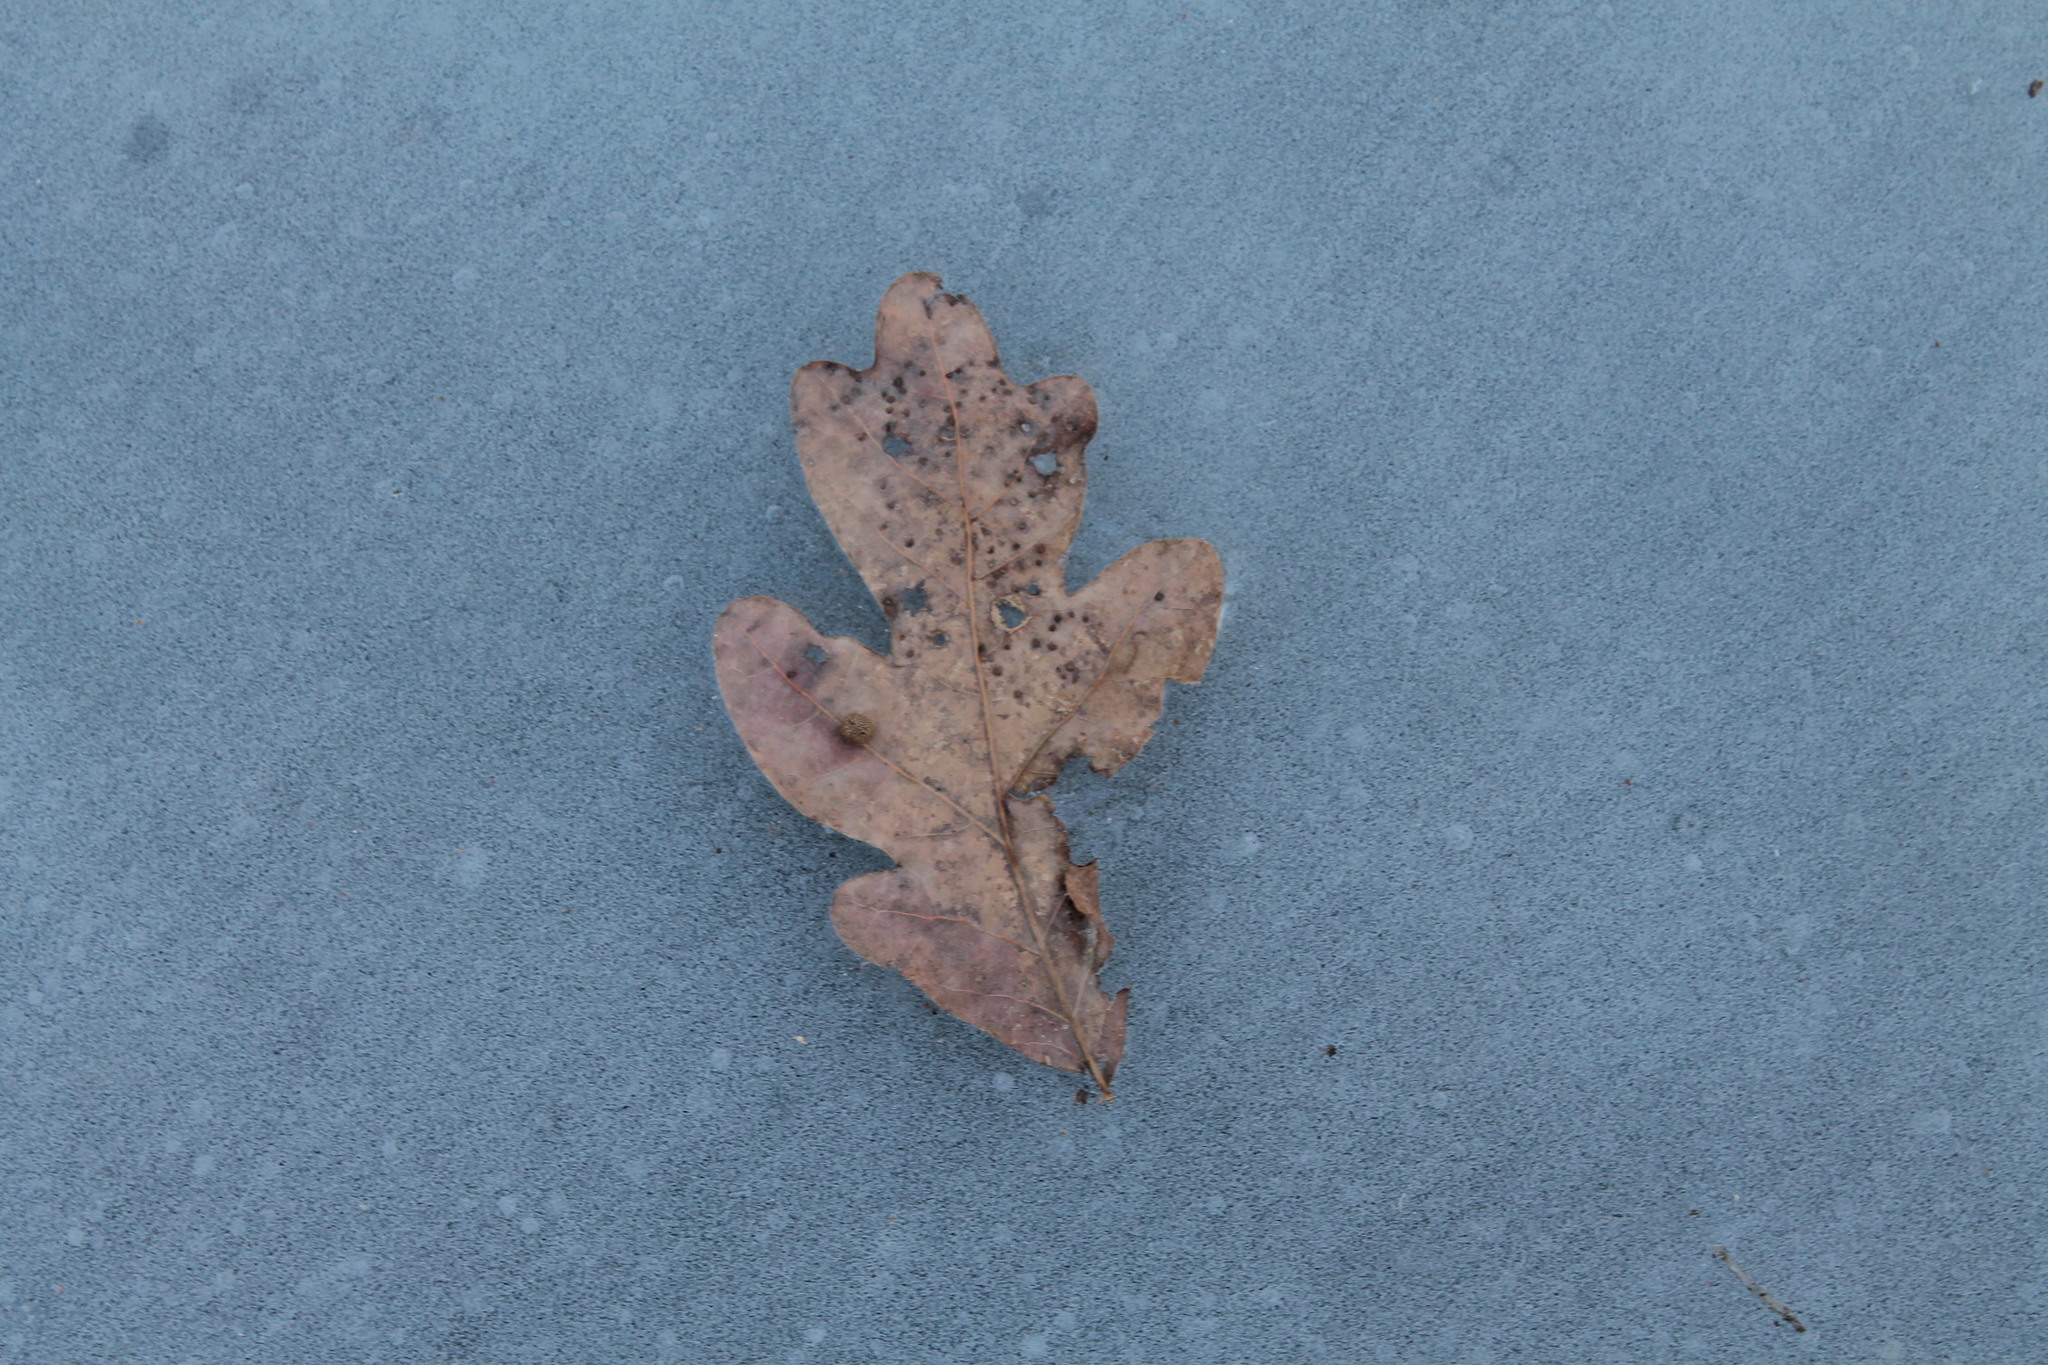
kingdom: Plantae
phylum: Tracheophyta
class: Magnoliopsida
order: Fagales
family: Fagaceae
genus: Quercus
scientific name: Quercus alba
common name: White oak
